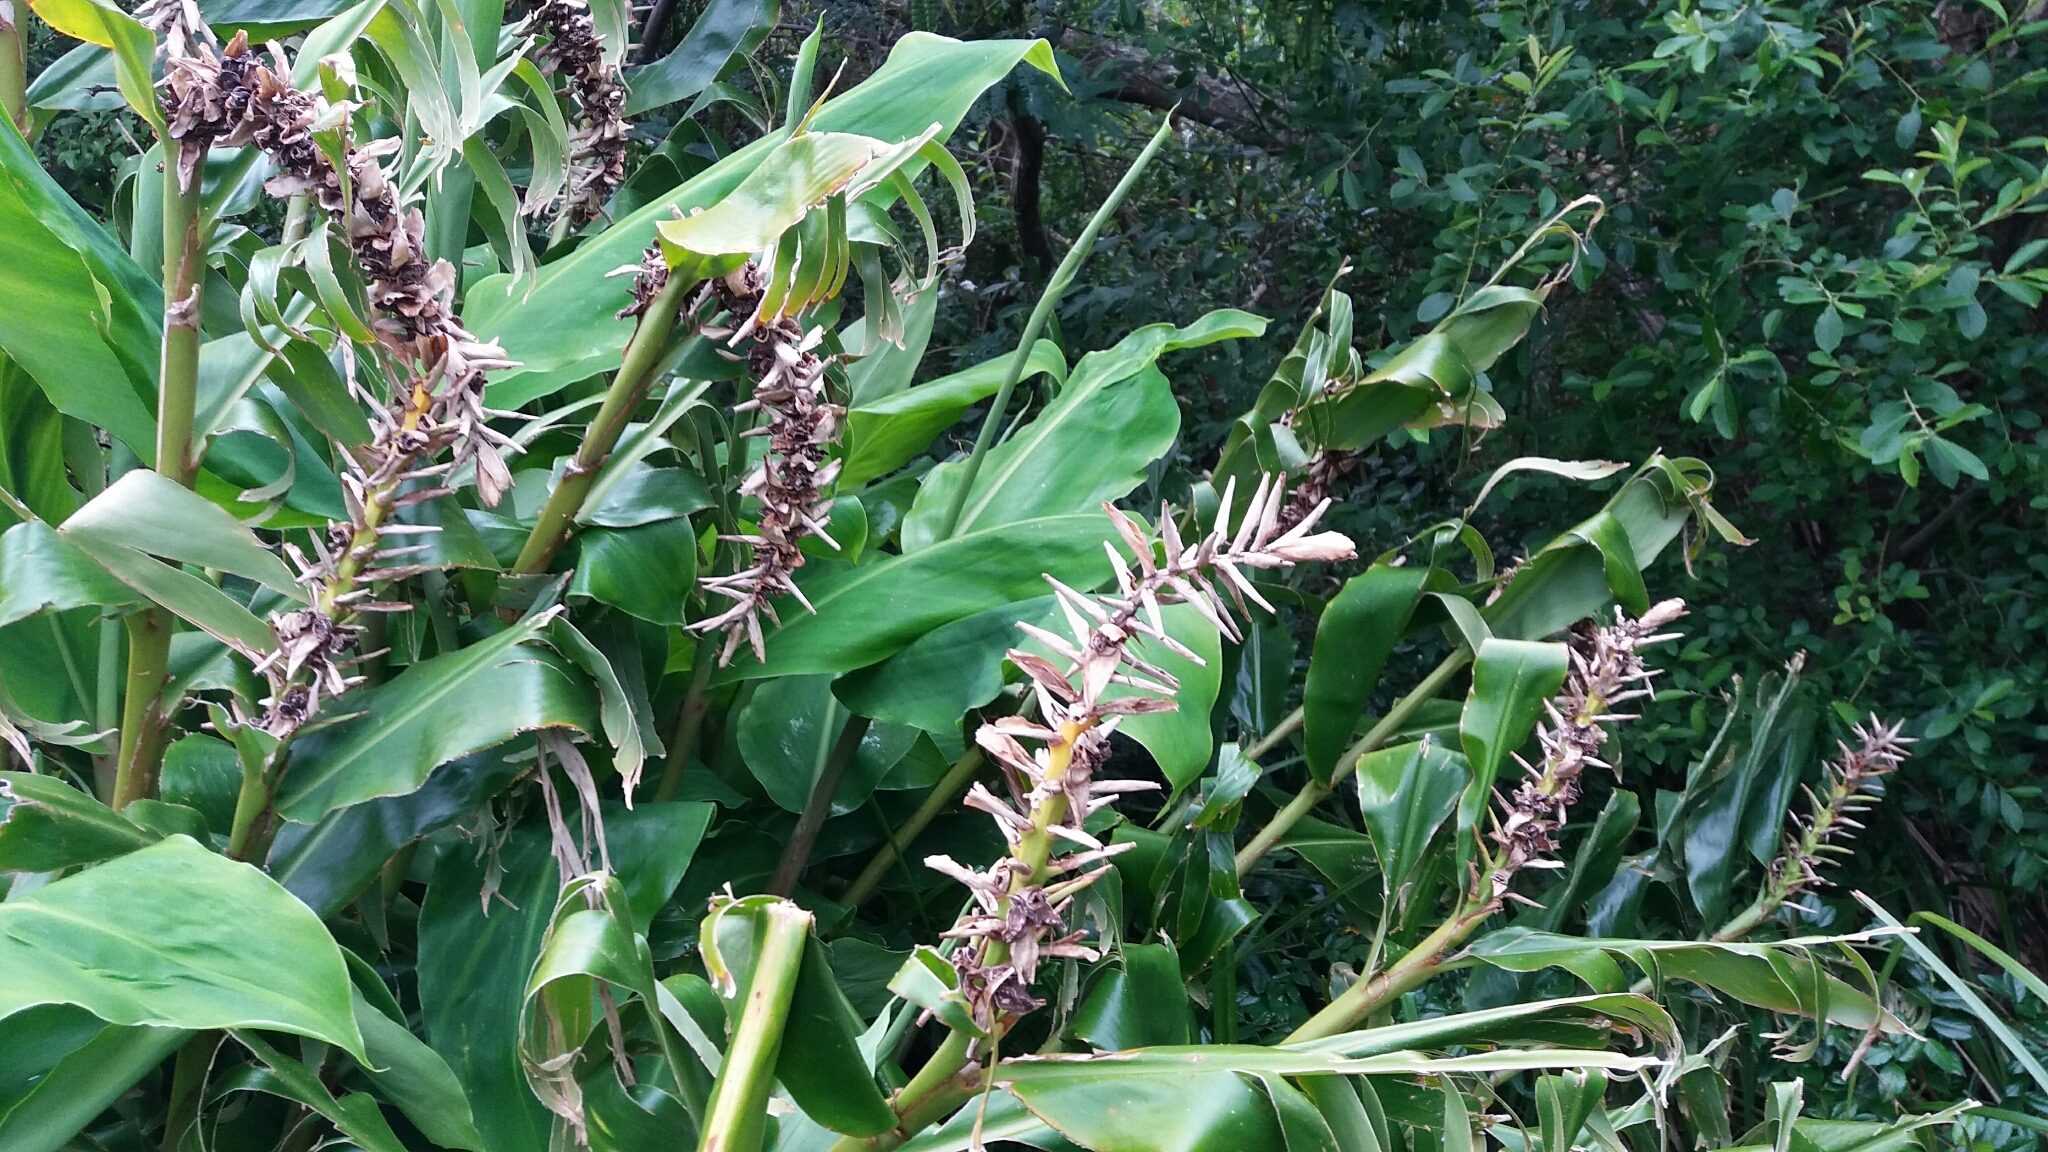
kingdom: Plantae
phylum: Tracheophyta
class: Liliopsida
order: Zingiberales
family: Zingiberaceae
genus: Hedychium
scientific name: Hedychium gardnerianum
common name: Himalayan ginger
